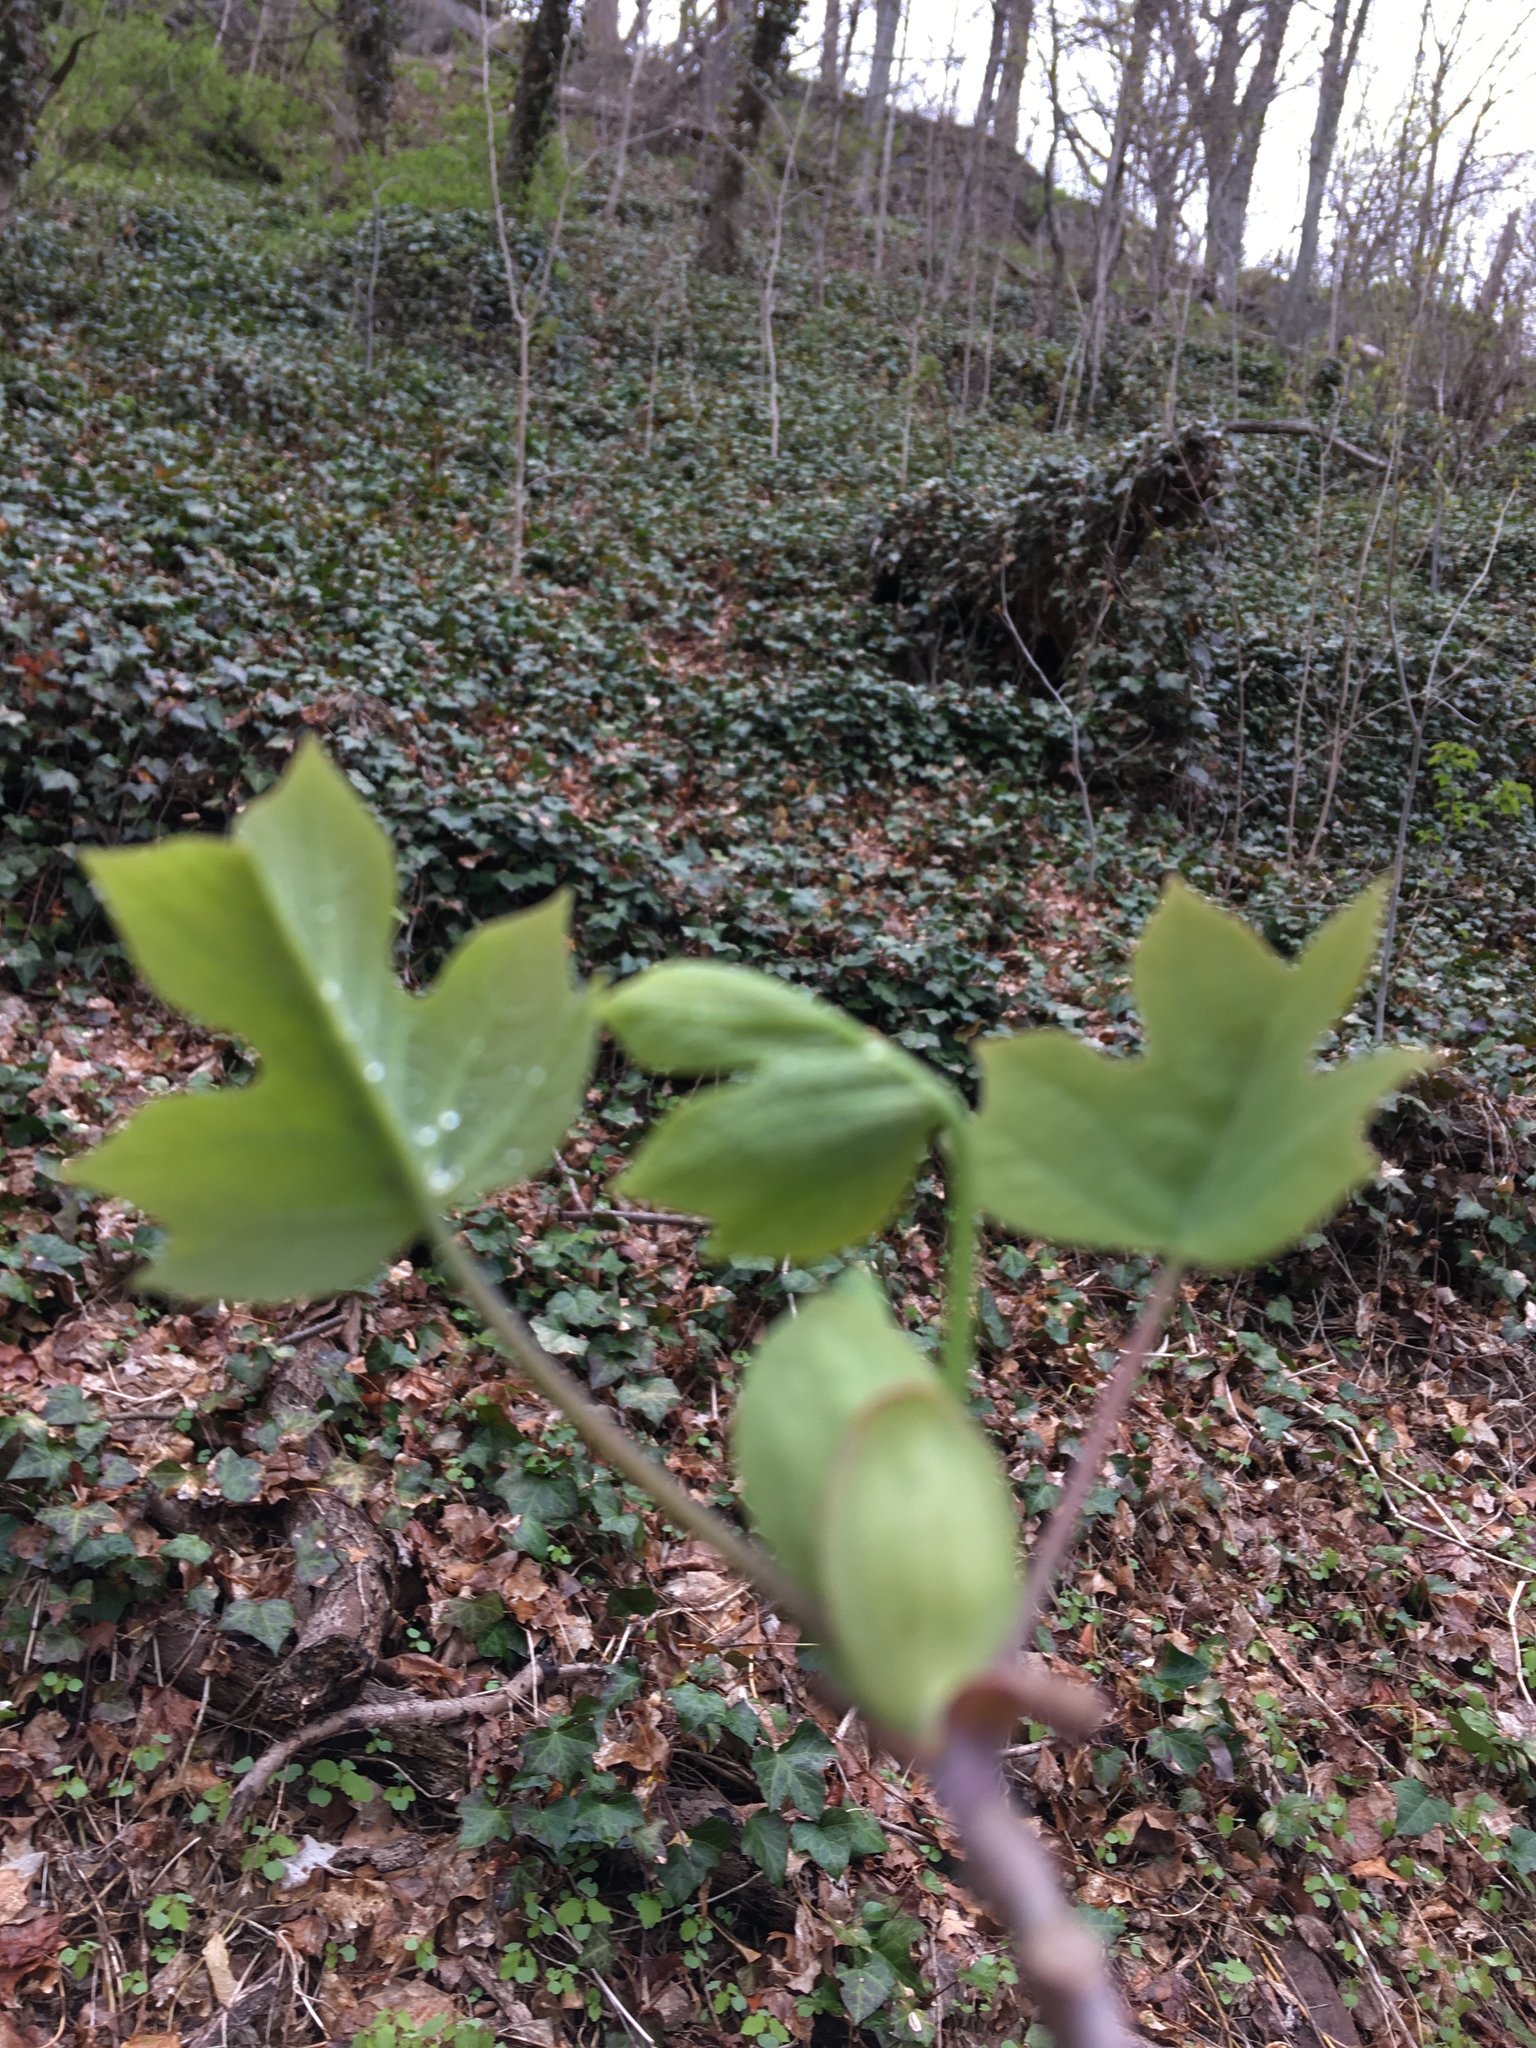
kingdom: Plantae
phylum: Tracheophyta
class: Magnoliopsida
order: Magnoliales
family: Magnoliaceae
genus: Liriodendron
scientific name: Liriodendron tulipifera
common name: Tulip tree
